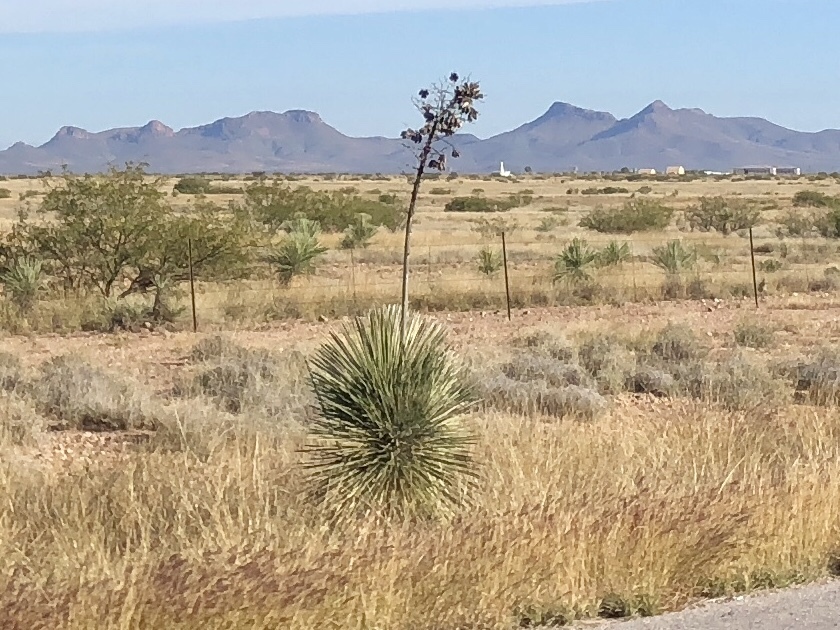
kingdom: Plantae
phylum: Tracheophyta
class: Liliopsida
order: Asparagales
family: Asparagaceae
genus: Yucca
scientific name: Yucca elata
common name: Palmella
